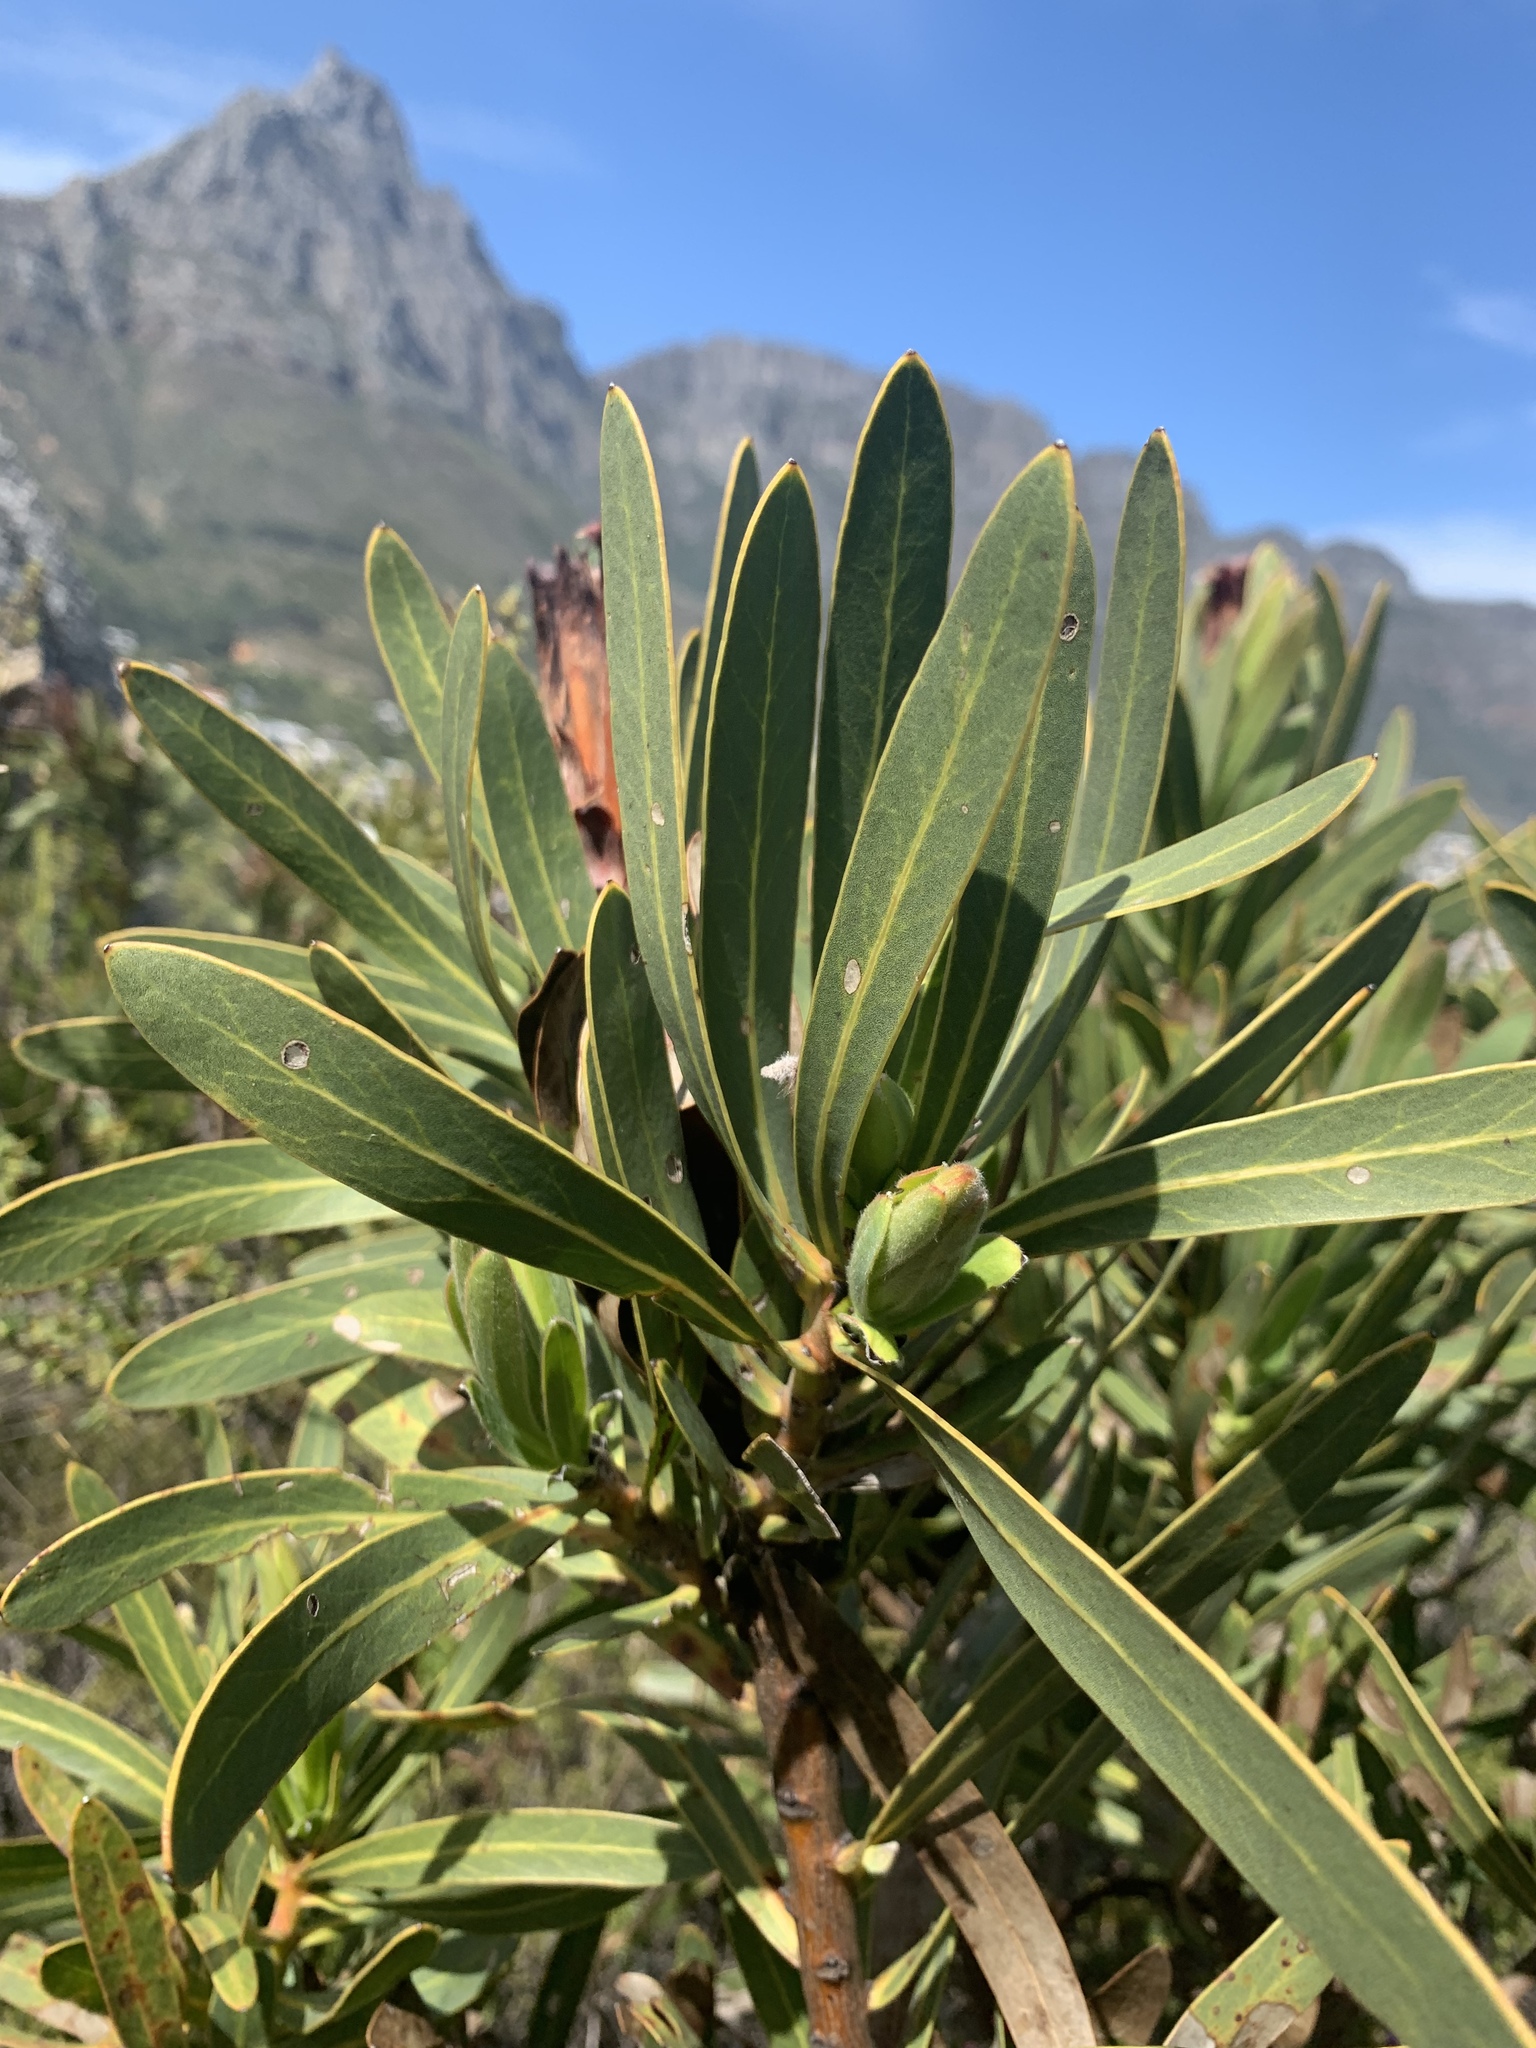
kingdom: Plantae
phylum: Tracheophyta
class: Magnoliopsida
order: Proteales
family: Proteaceae
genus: Protea
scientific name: Protea lepidocarpodendron
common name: Black-bearded protea
